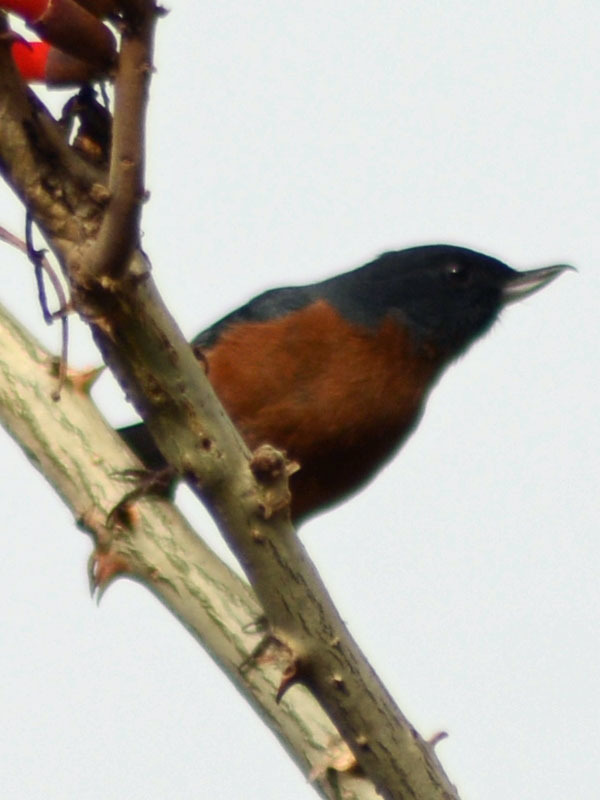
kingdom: Animalia
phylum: Chordata
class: Aves
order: Passeriformes
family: Thraupidae
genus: Diglossa
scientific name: Diglossa baritula
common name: Cinnamon-bellied flowerpiercer
